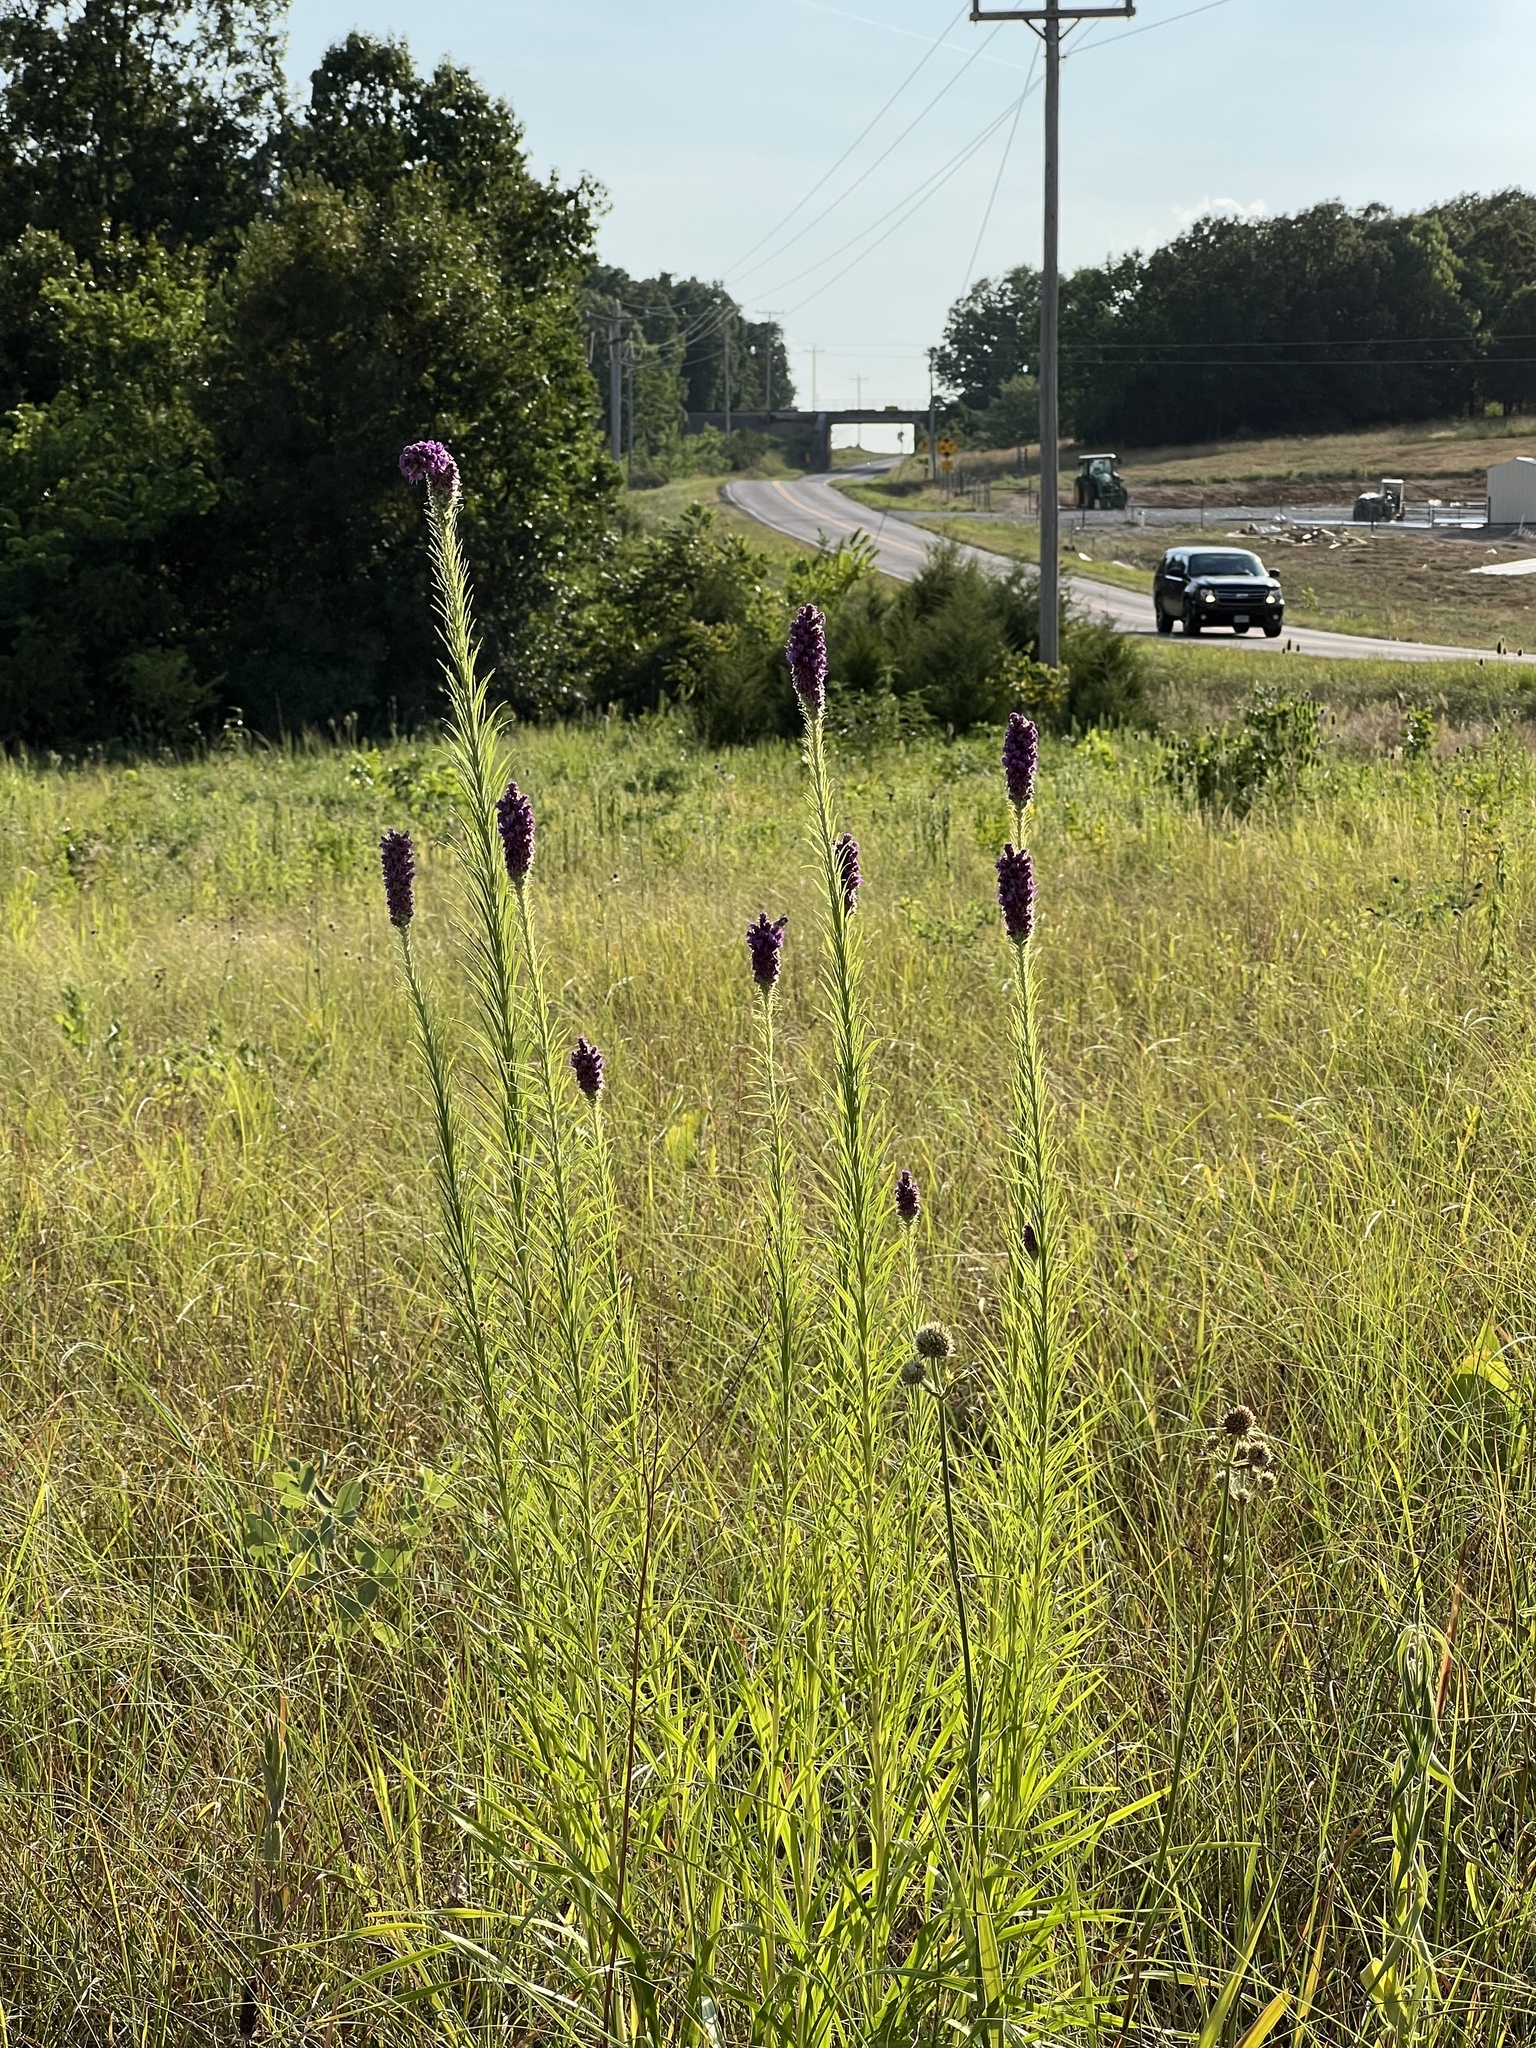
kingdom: Plantae
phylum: Tracheophyta
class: Magnoliopsida
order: Asterales
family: Asteraceae
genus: Liatris
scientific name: Liatris pycnostachya
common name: Cattail gayfeather
